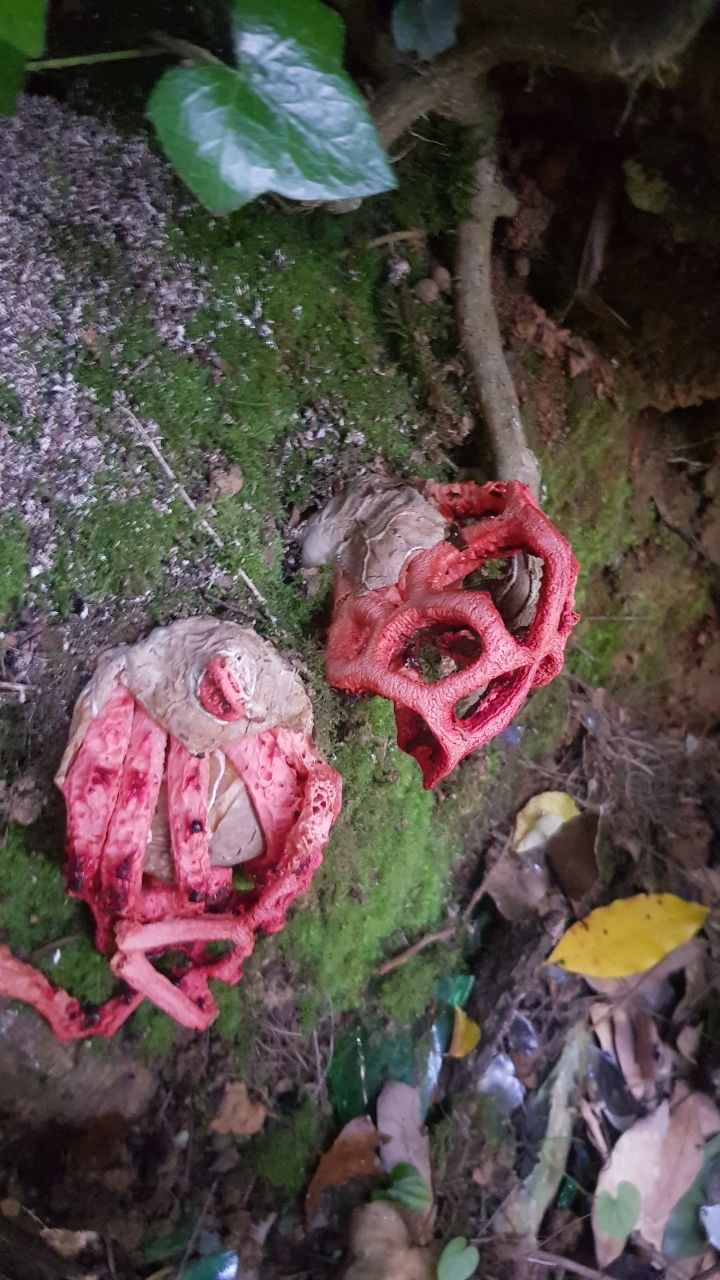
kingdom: Fungi
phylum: Basidiomycota
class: Agaricomycetes
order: Phallales
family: Phallaceae
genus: Clathrus
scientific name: Clathrus ruber
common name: Red cage
